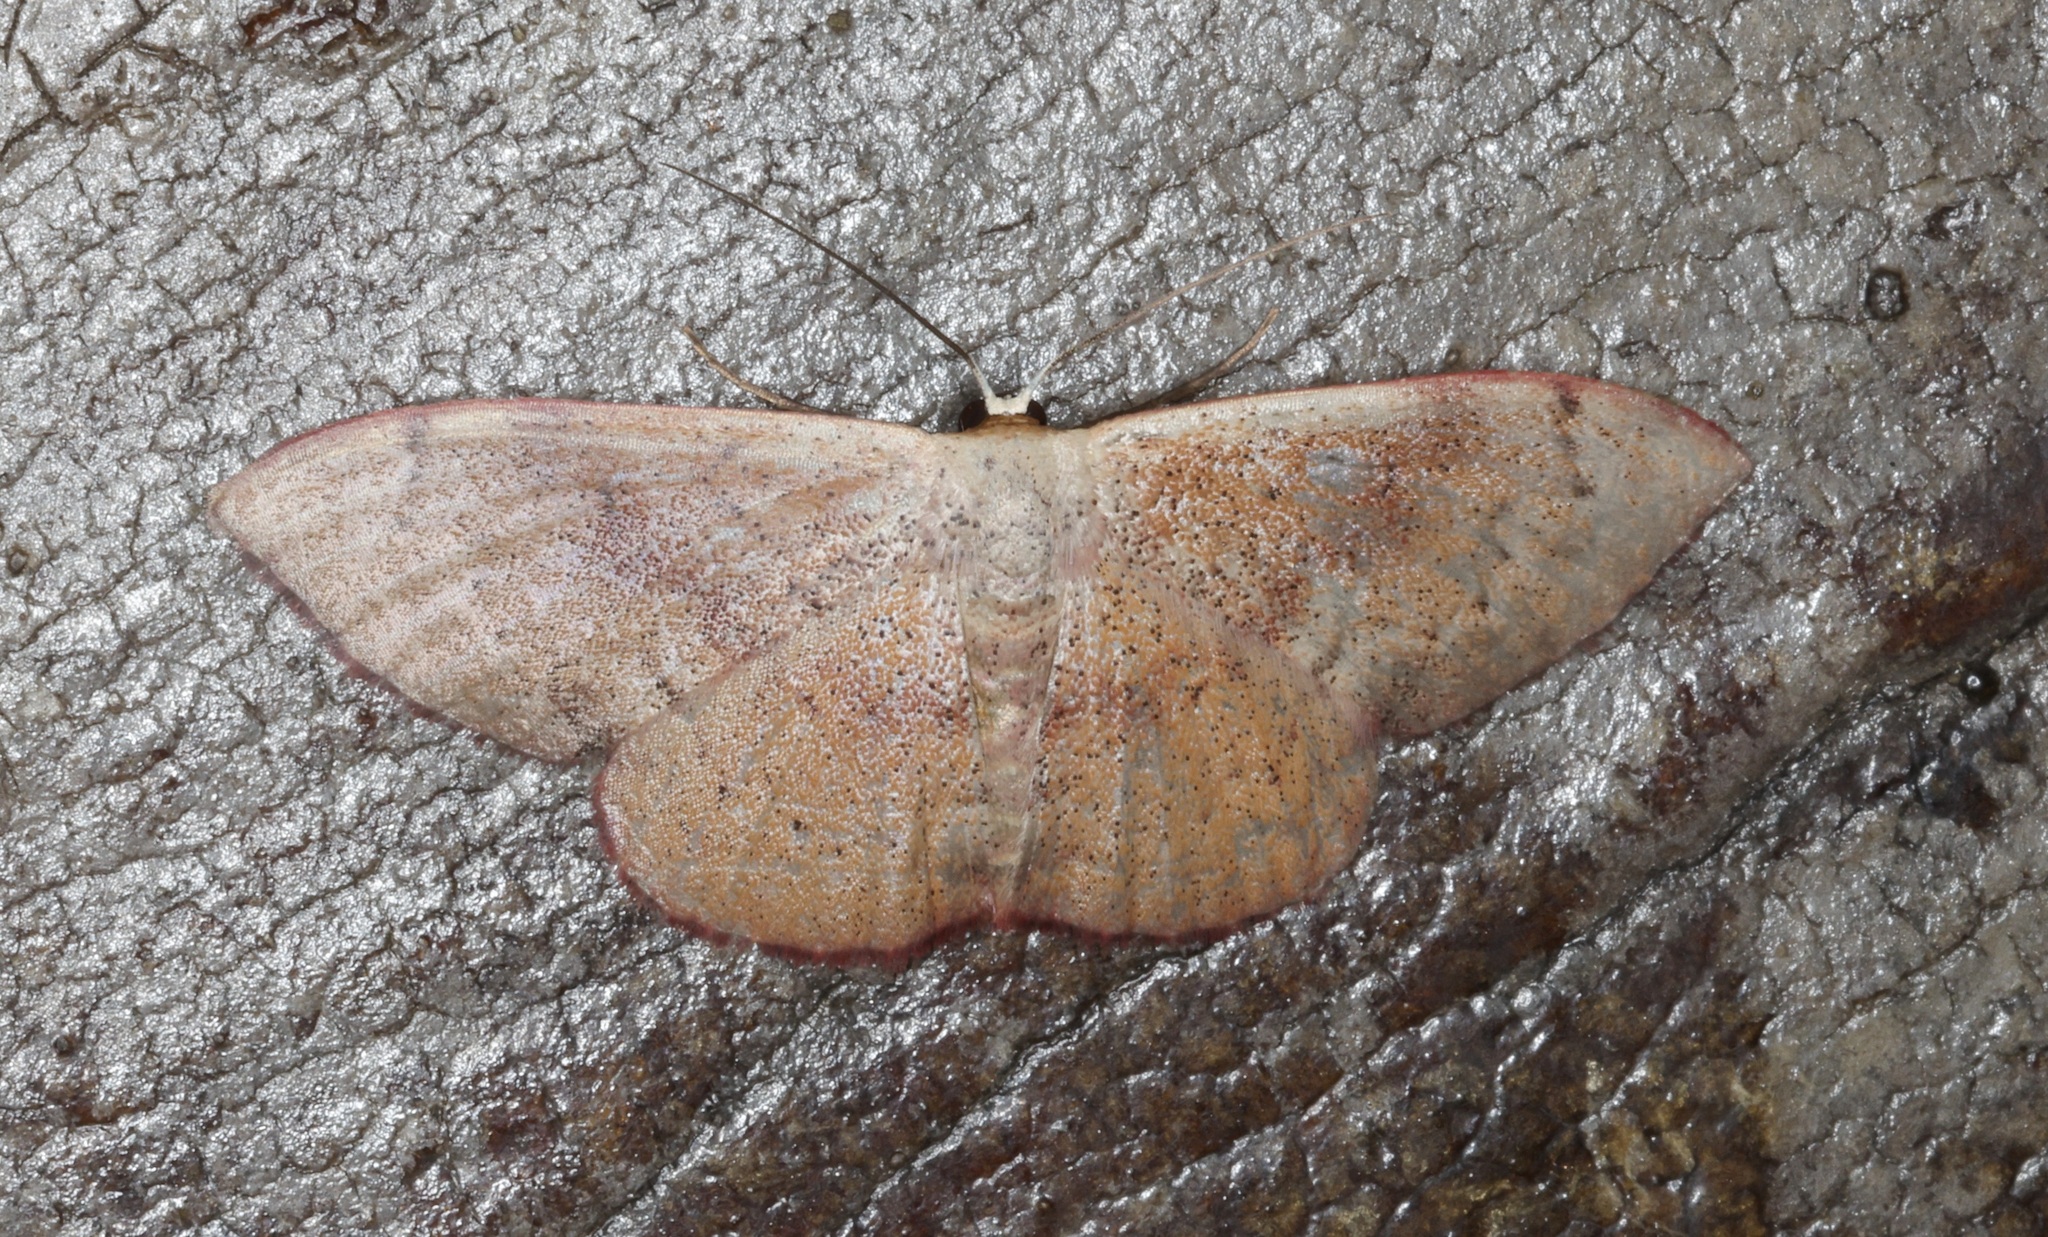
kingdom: Animalia
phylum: Arthropoda
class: Insecta
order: Lepidoptera
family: Geometridae
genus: Somatina
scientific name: Somatina obscuriciliata
